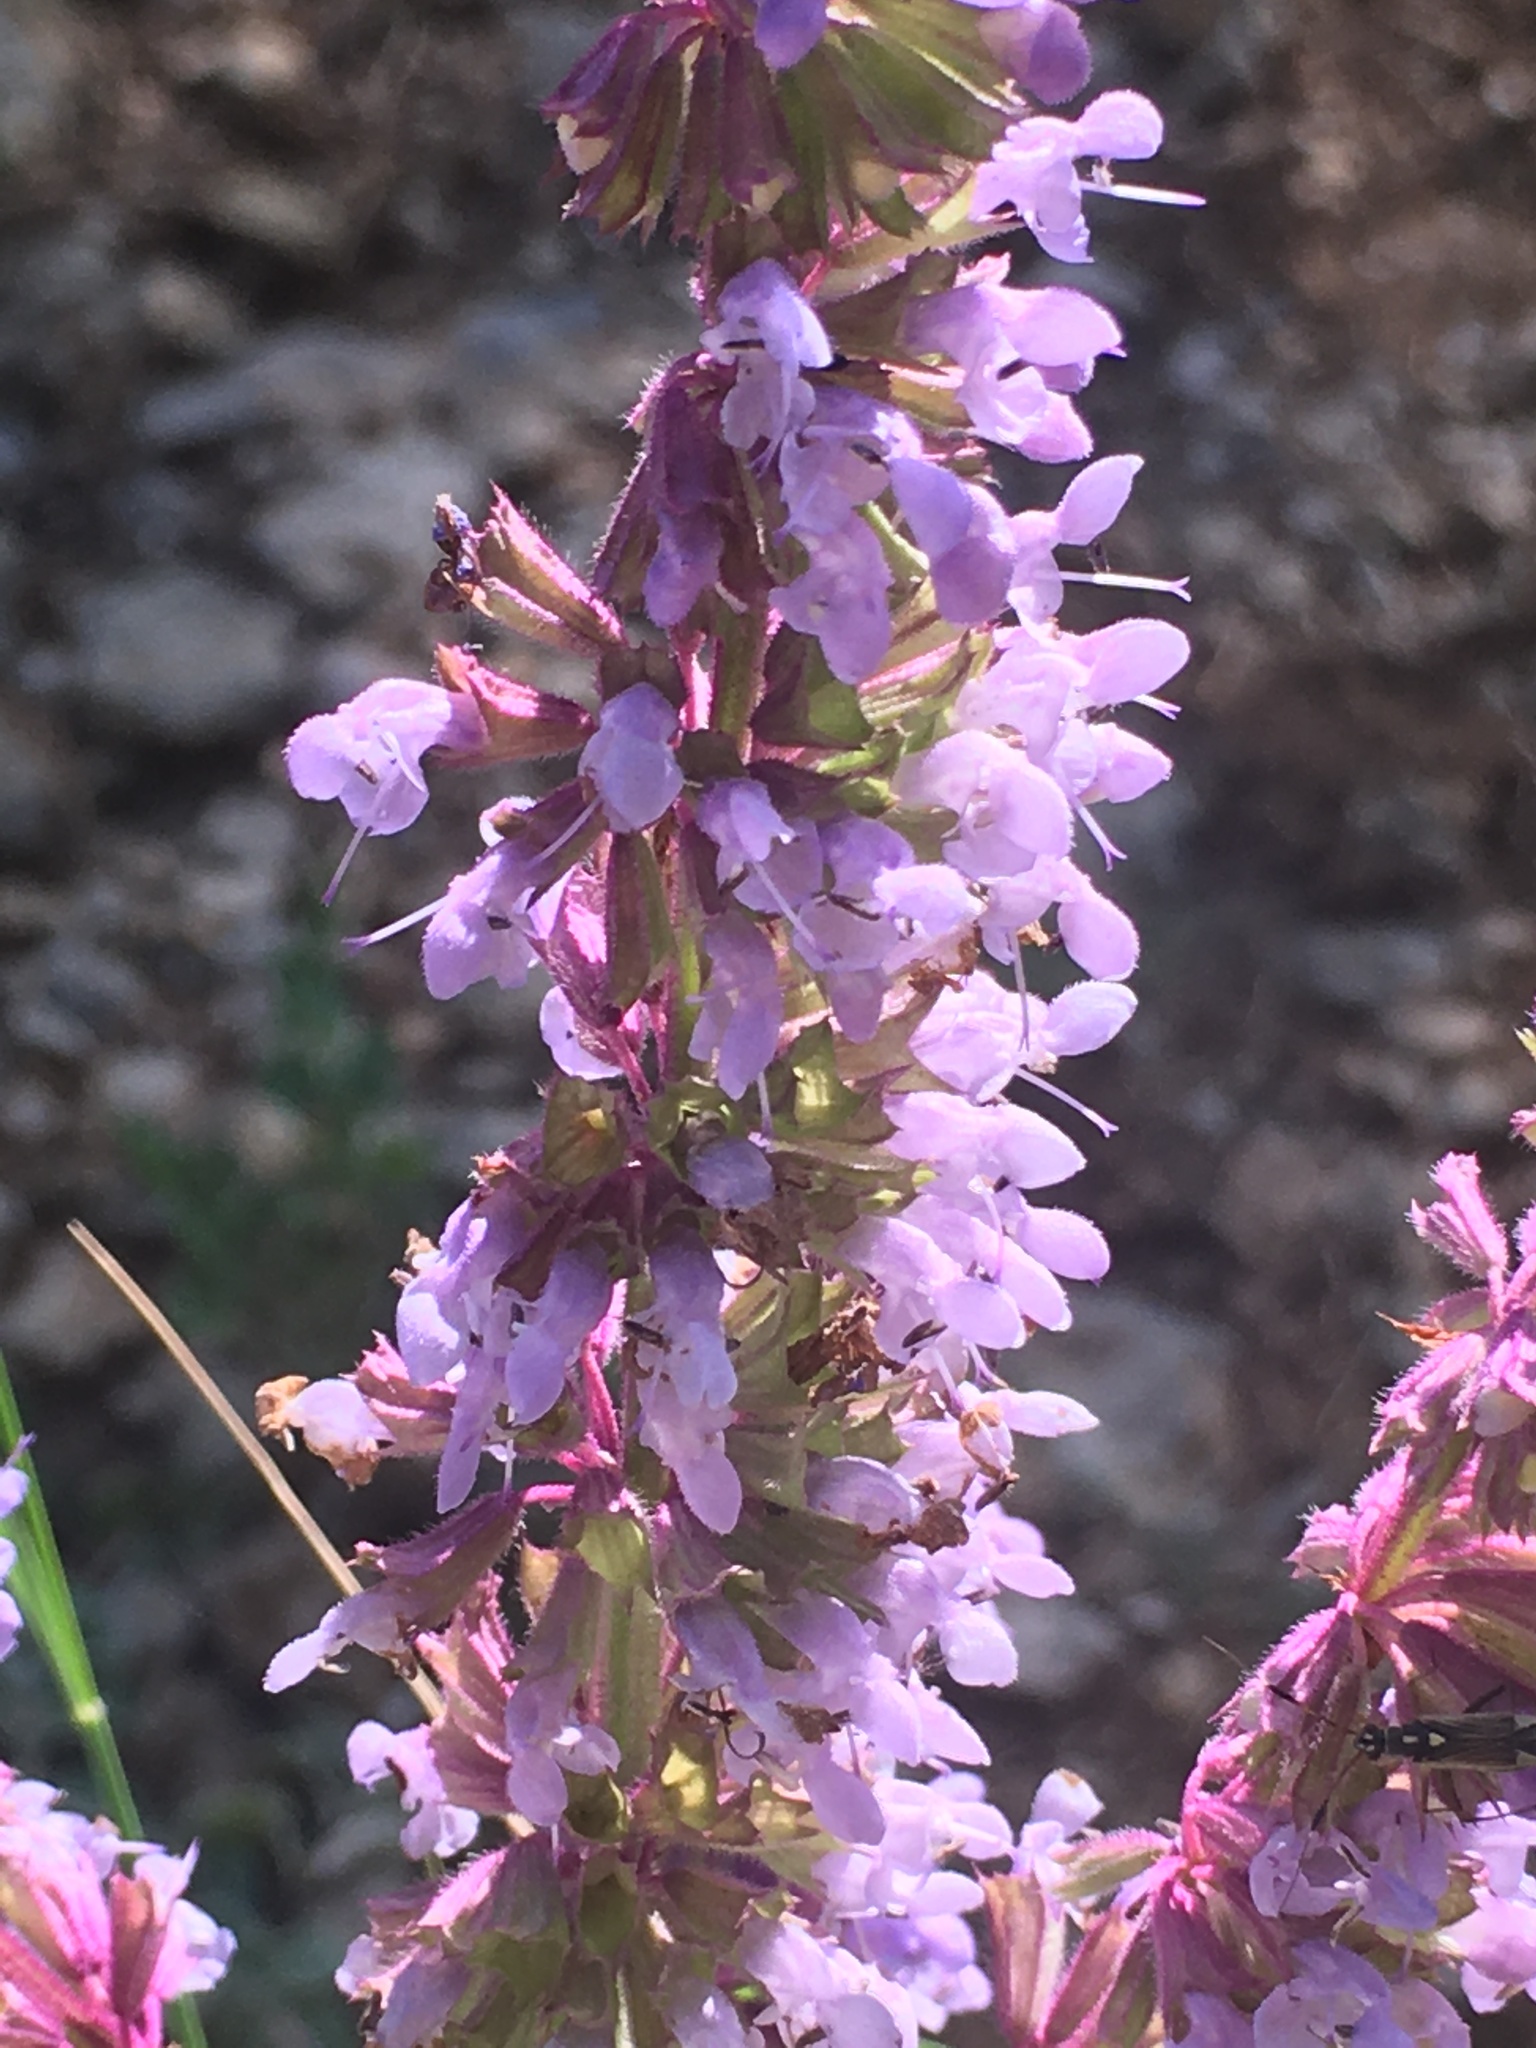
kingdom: Plantae
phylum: Tracheophyta
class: Magnoliopsida
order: Lamiales
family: Lamiaceae
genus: Salvia
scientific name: Salvia verticillata
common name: Whorled clary
